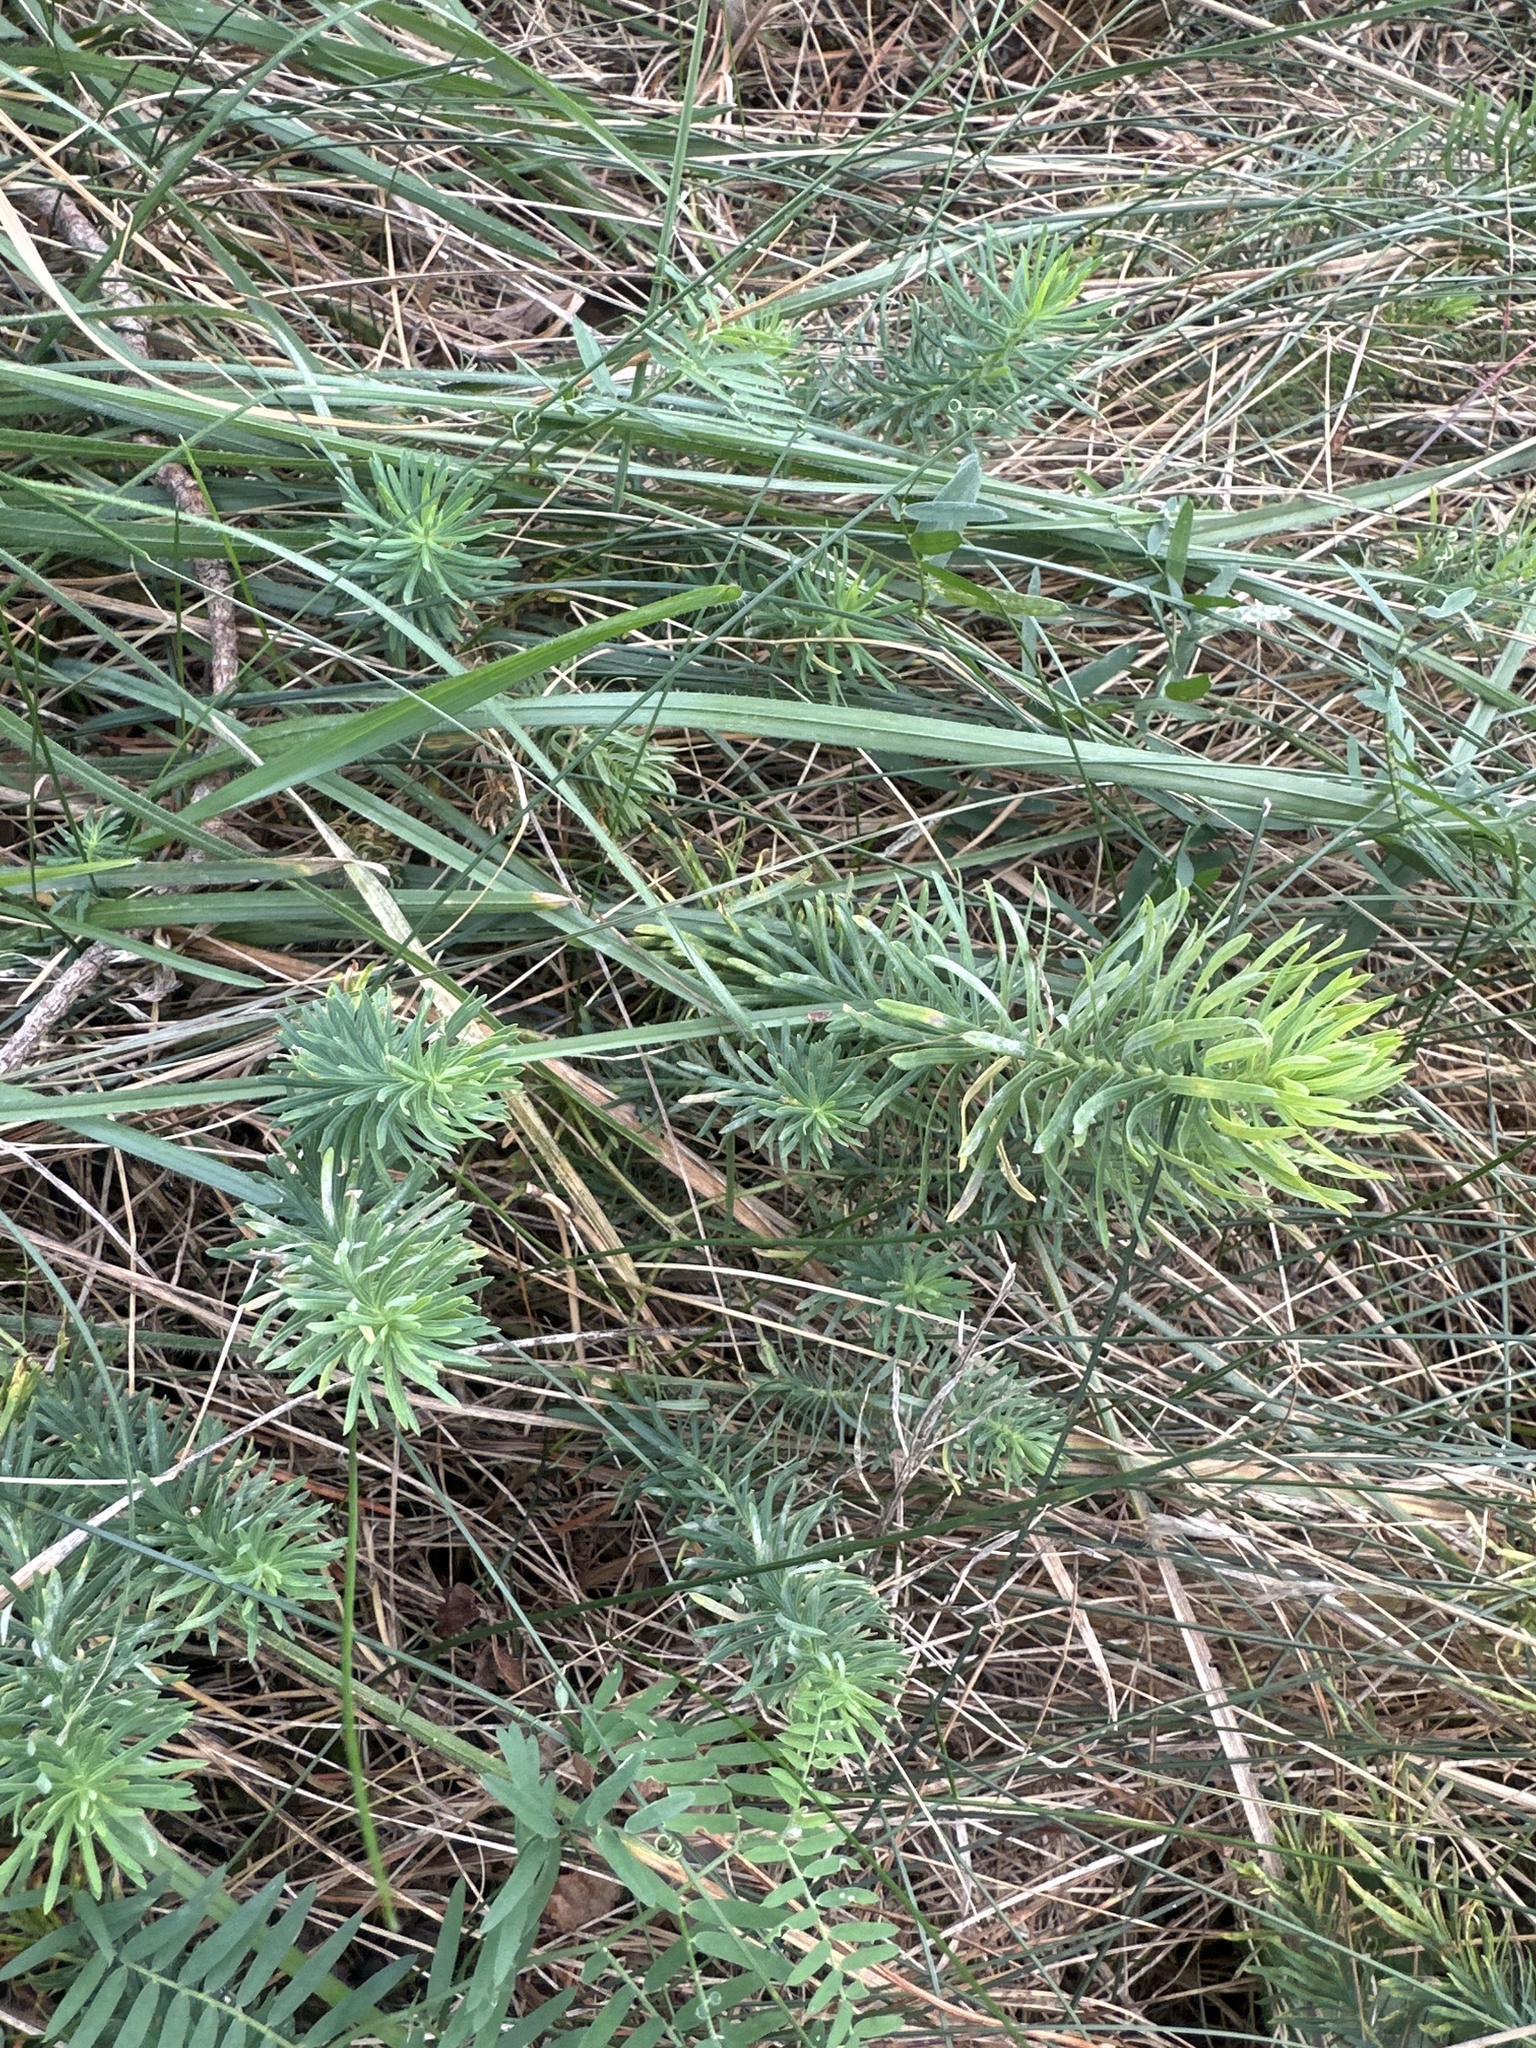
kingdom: Plantae
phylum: Tracheophyta
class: Magnoliopsida
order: Malpighiales
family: Euphorbiaceae
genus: Euphorbia
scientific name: Euphorbia cyparissias
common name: Cypress spurge
